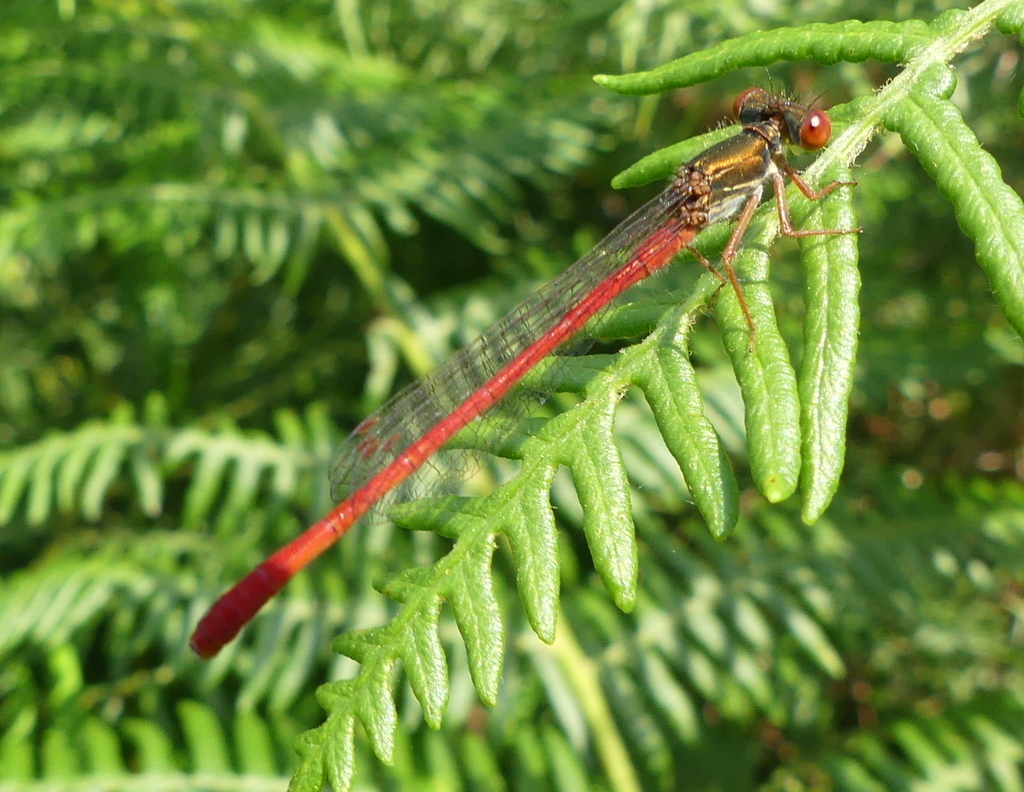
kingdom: Animalia
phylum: Arthropoda
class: Insecta
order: Odonata
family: Coenagrionidae
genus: Ceriagrion
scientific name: Ceriagrion tenellum
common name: Small red damselfly
